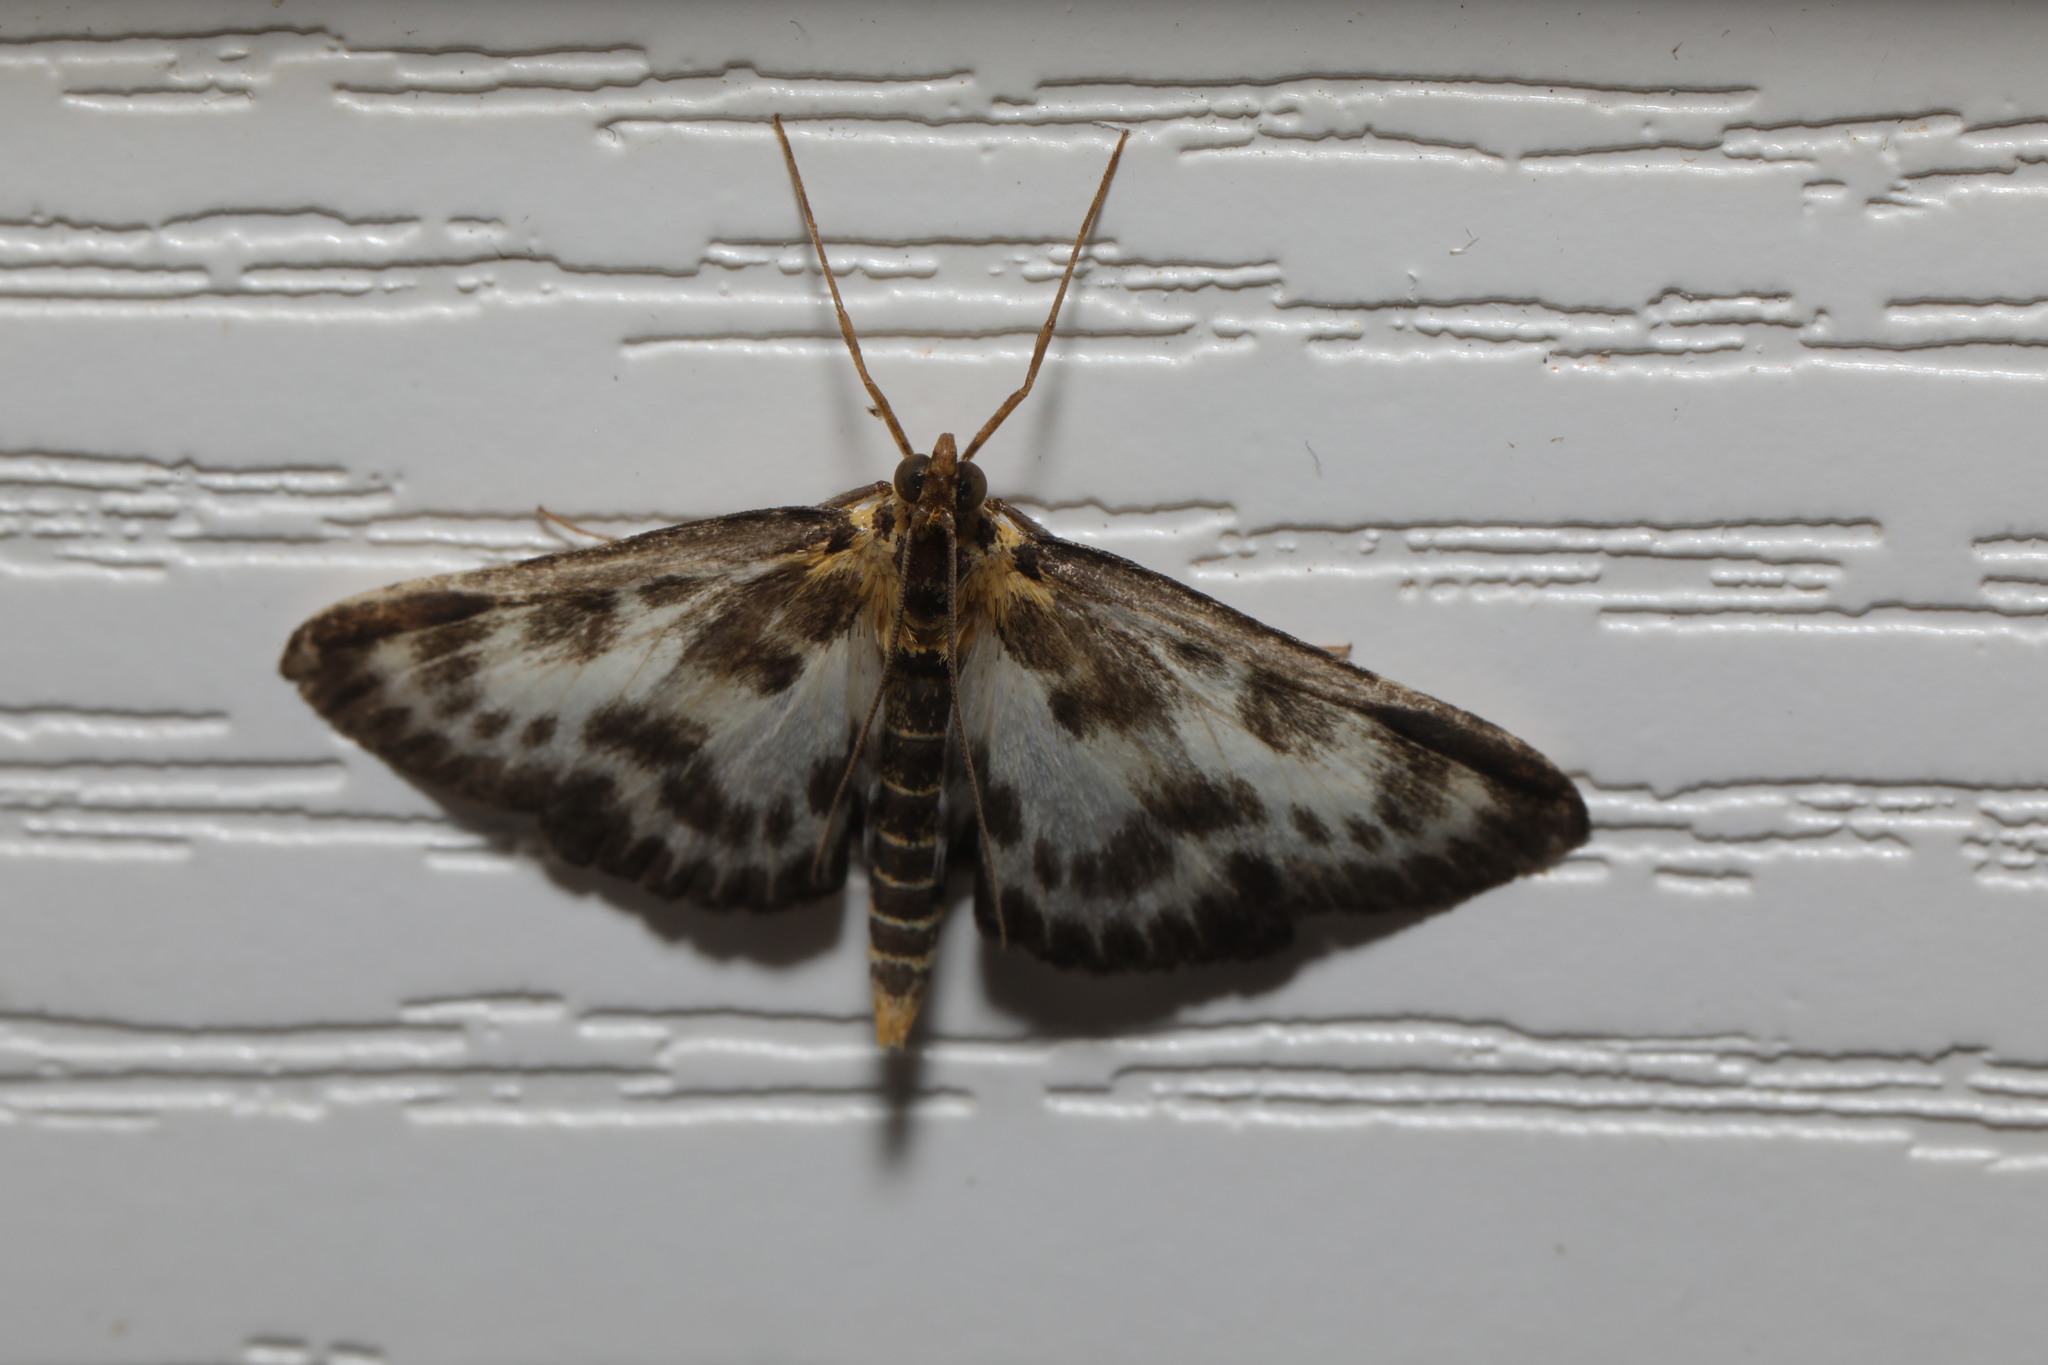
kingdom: Animalia
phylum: Arthropoda
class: Insecta
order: Lepidoptera
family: Crambidae
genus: Anania
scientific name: Anania hortulata
